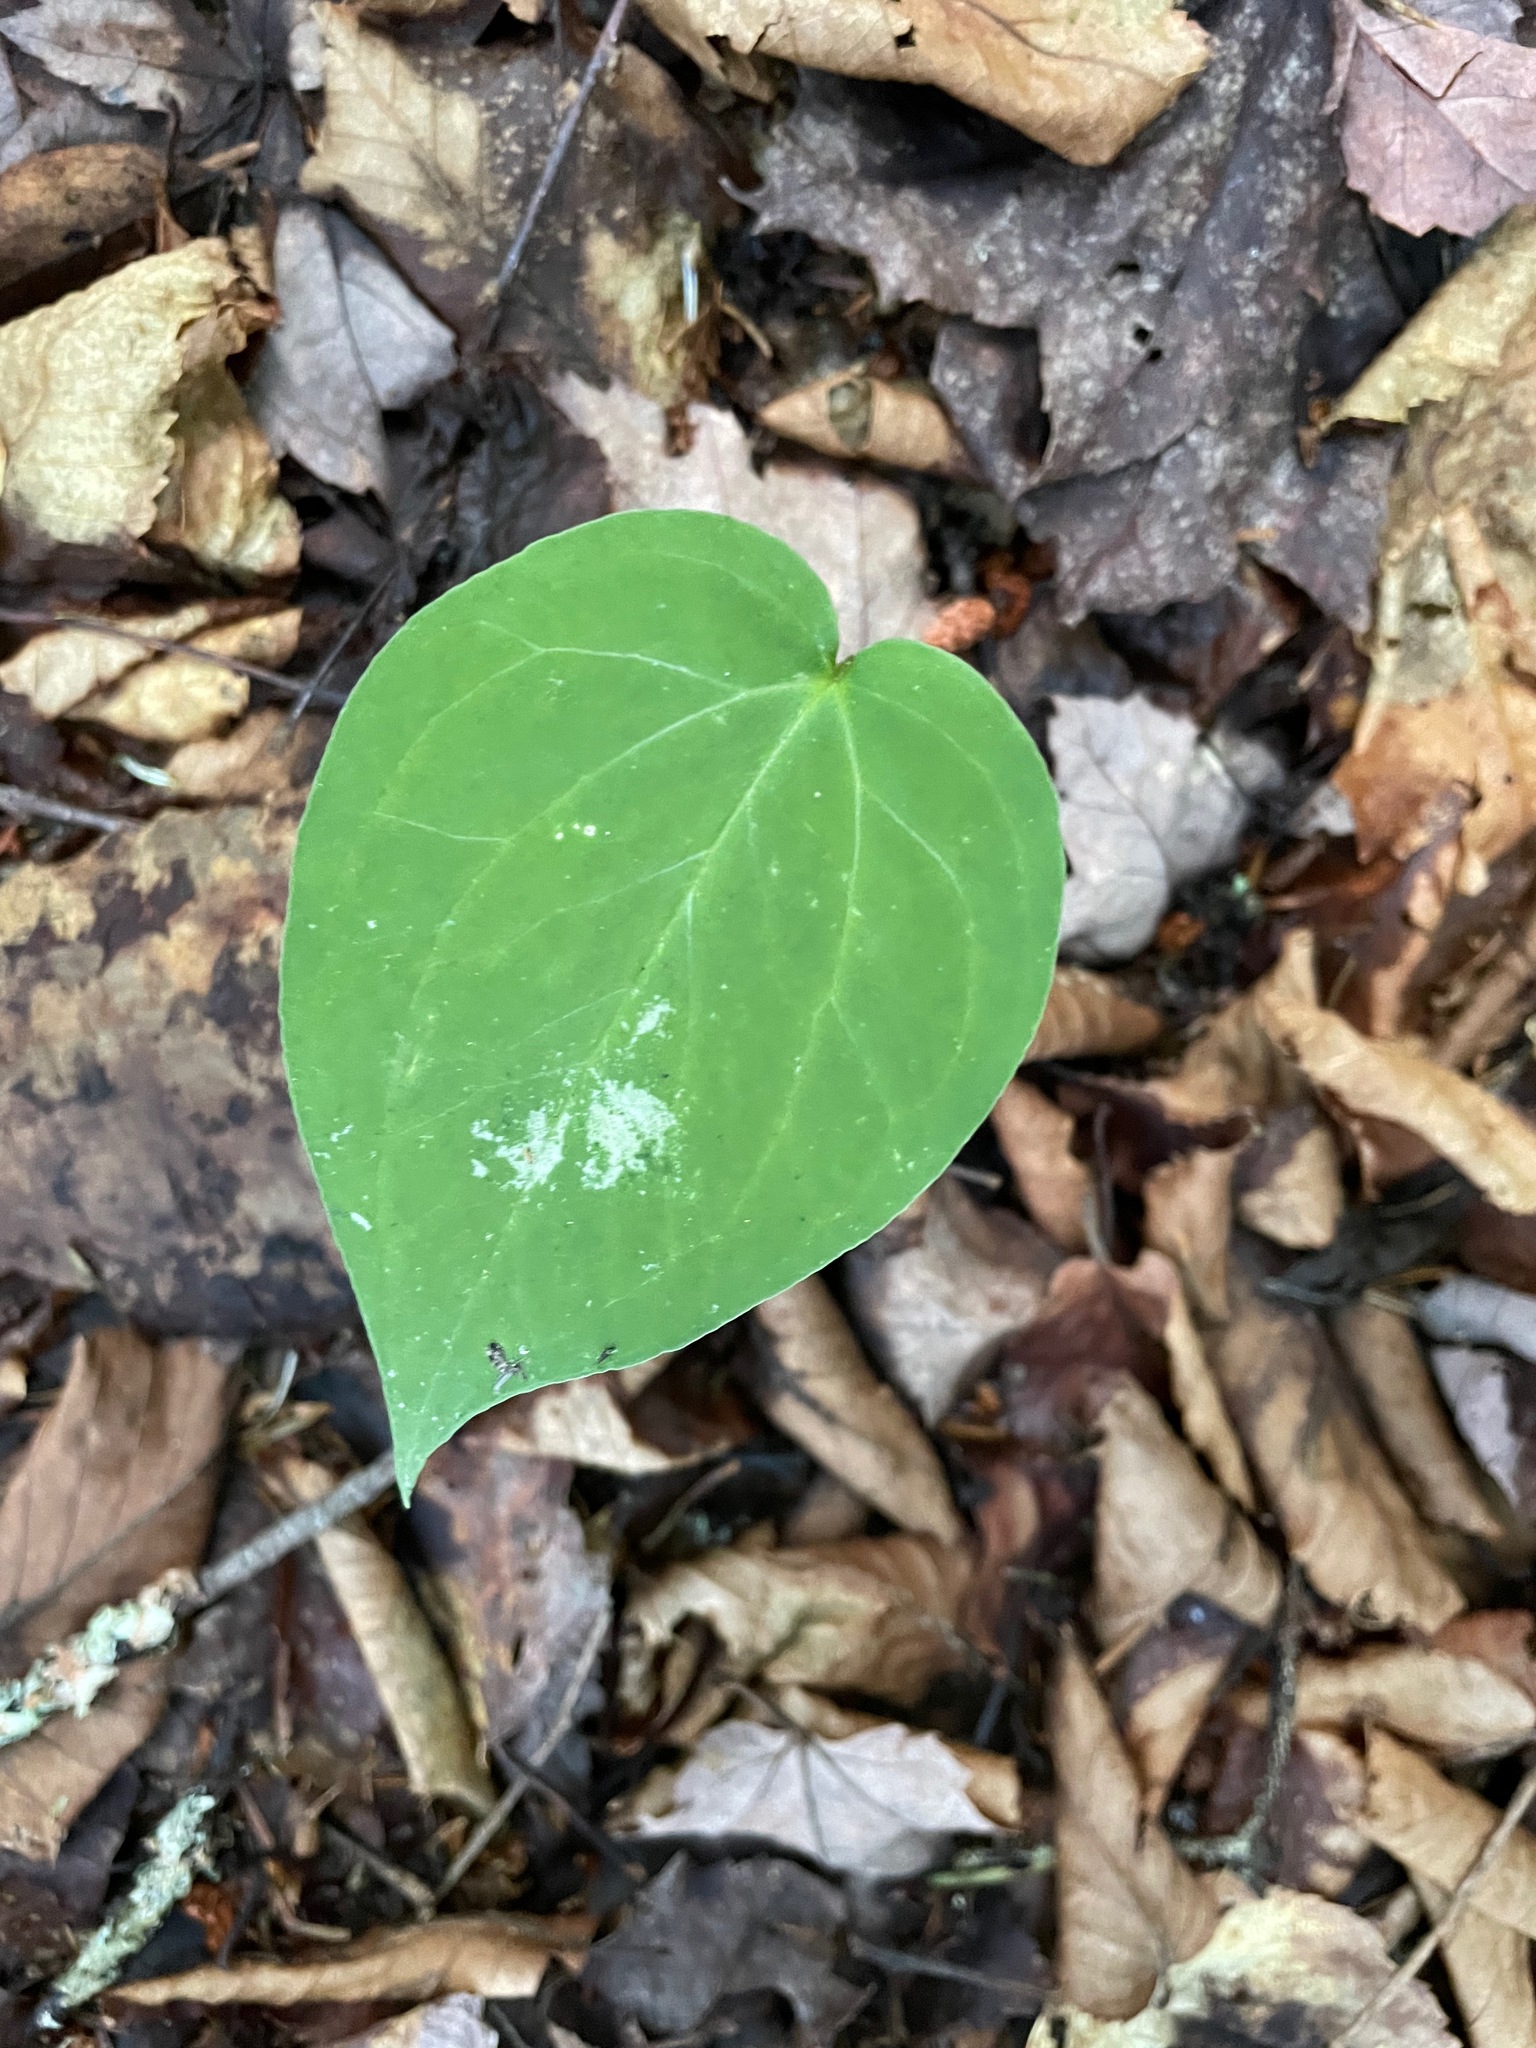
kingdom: Plantae
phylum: Tracheophyta
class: Liliopsida
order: Liliales
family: Melanthiaceae
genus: Trillium
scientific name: Trillium undulatum
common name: Paint trillium
